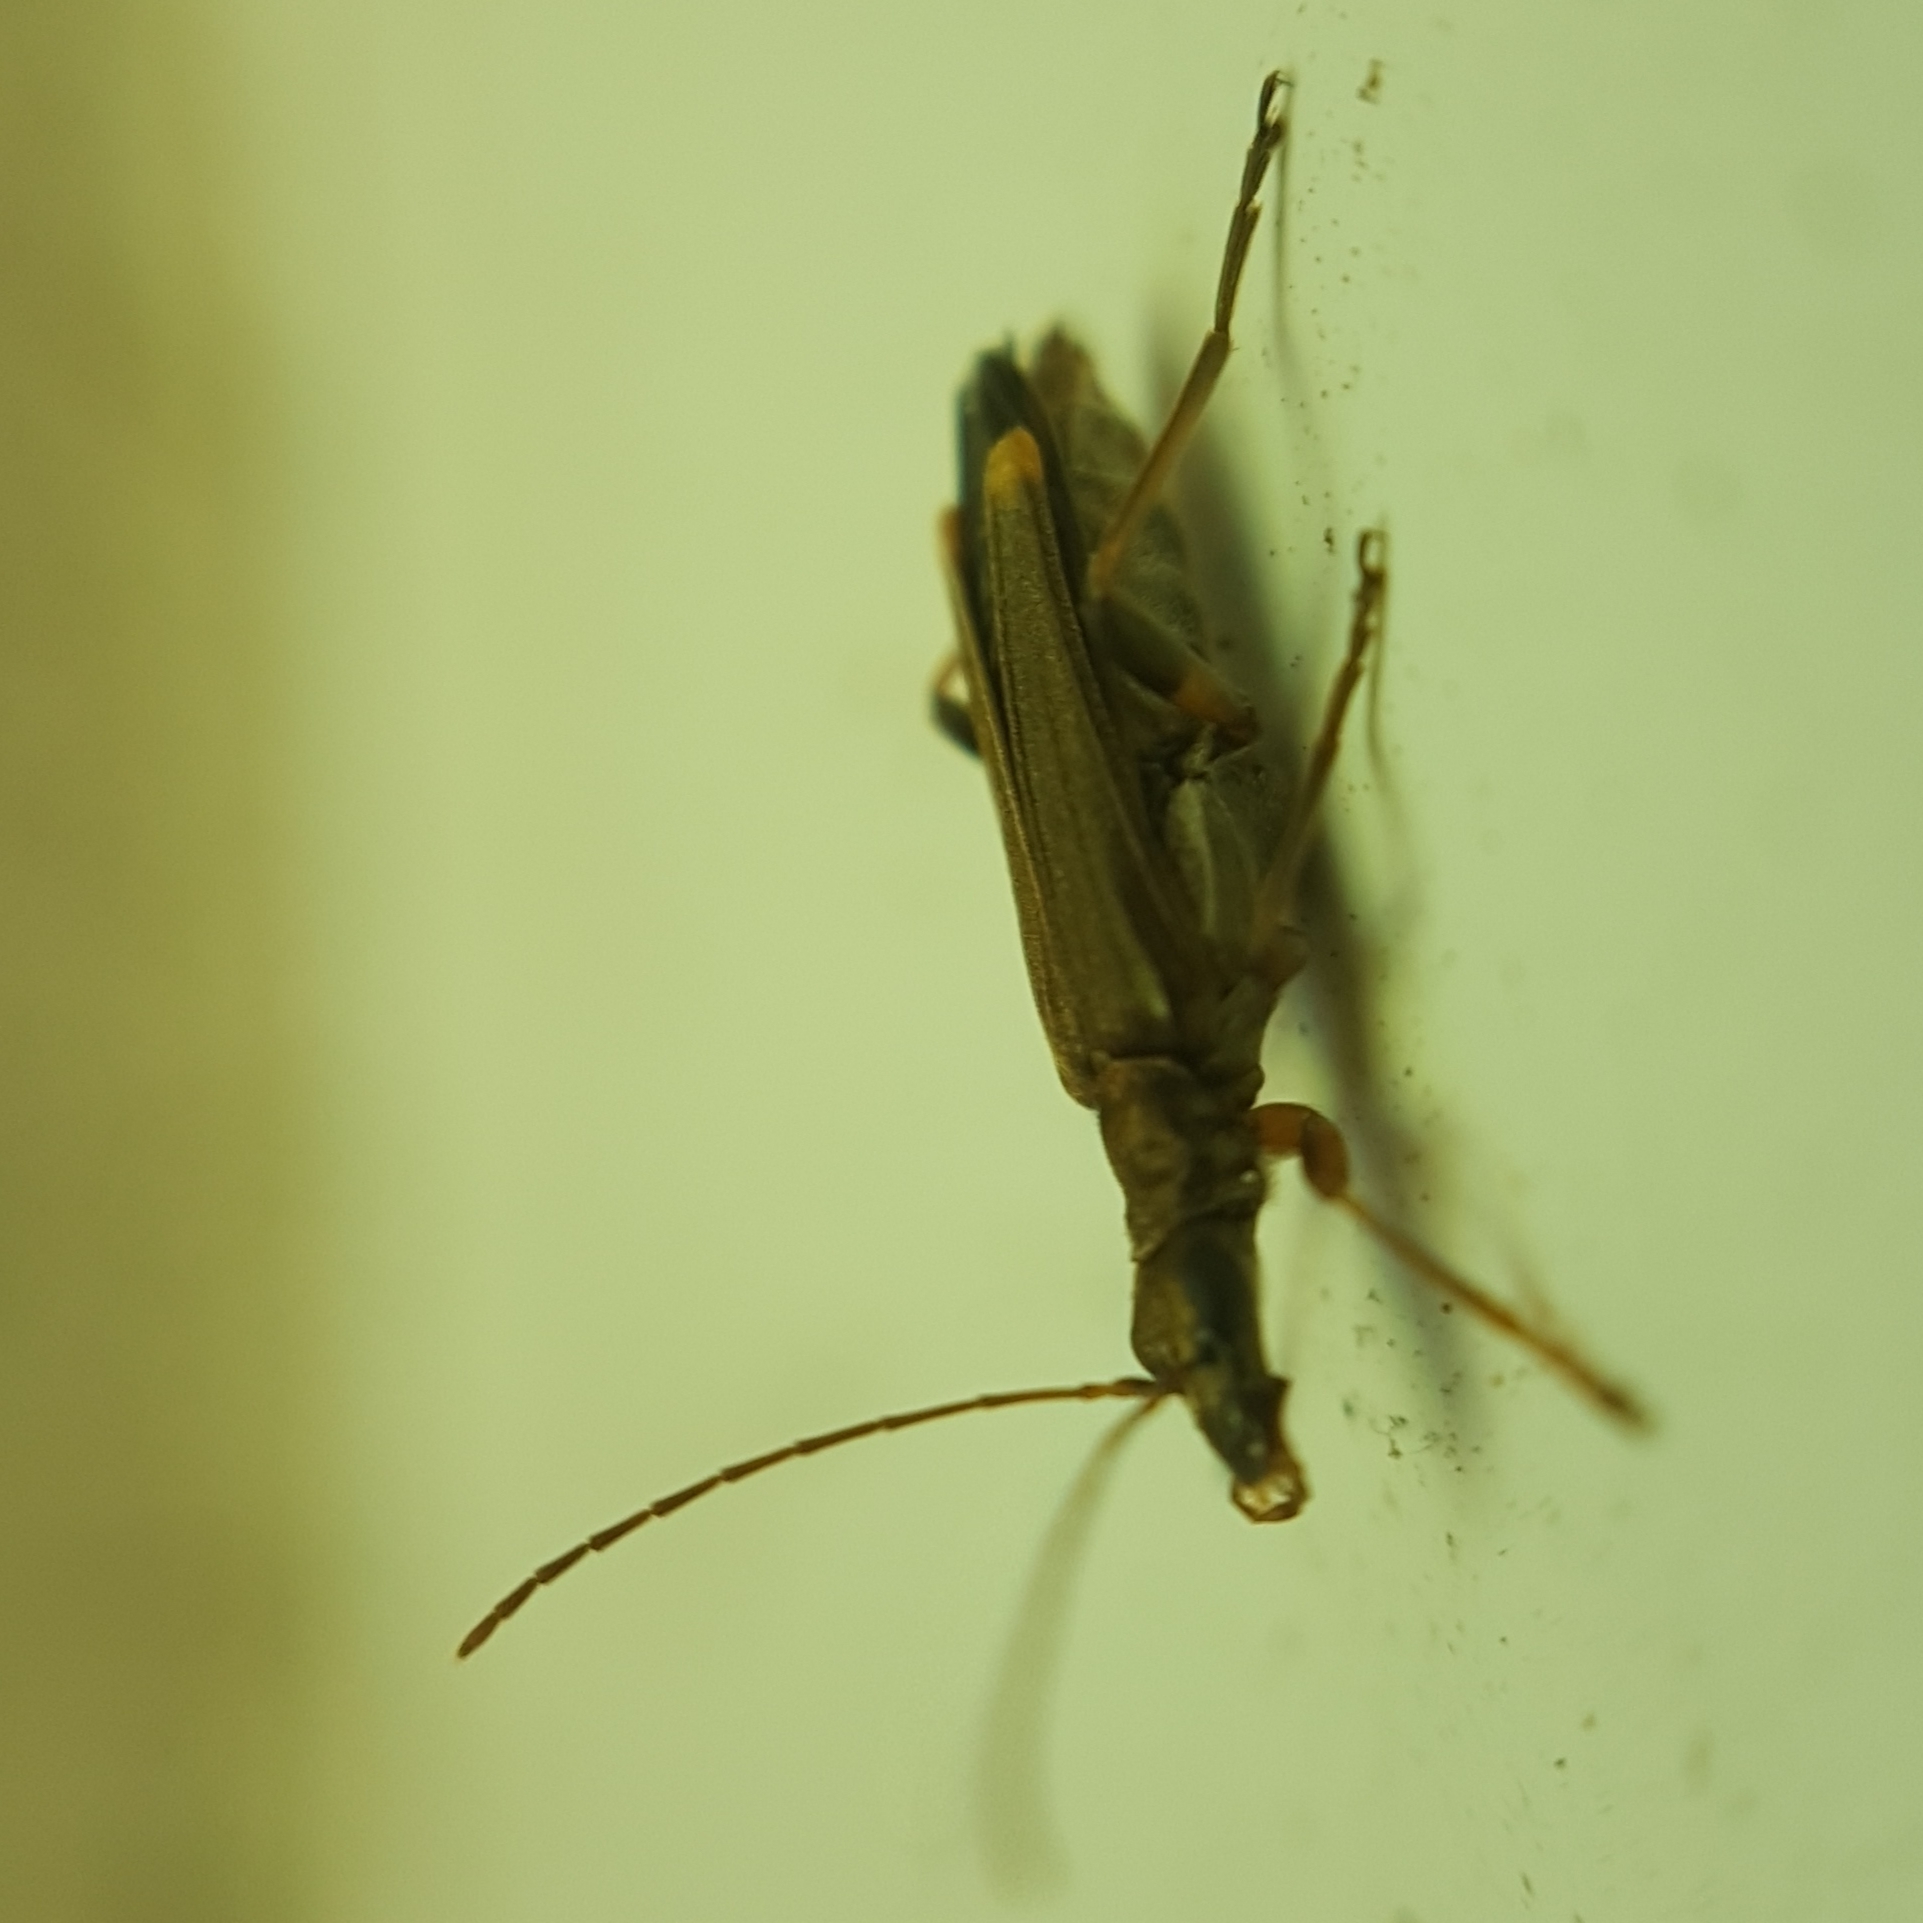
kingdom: Animalia
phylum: Arthropoda
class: Insecta
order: Coleoptera
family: Oedemeridae
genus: Oedemera
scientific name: Oedemera barbara
